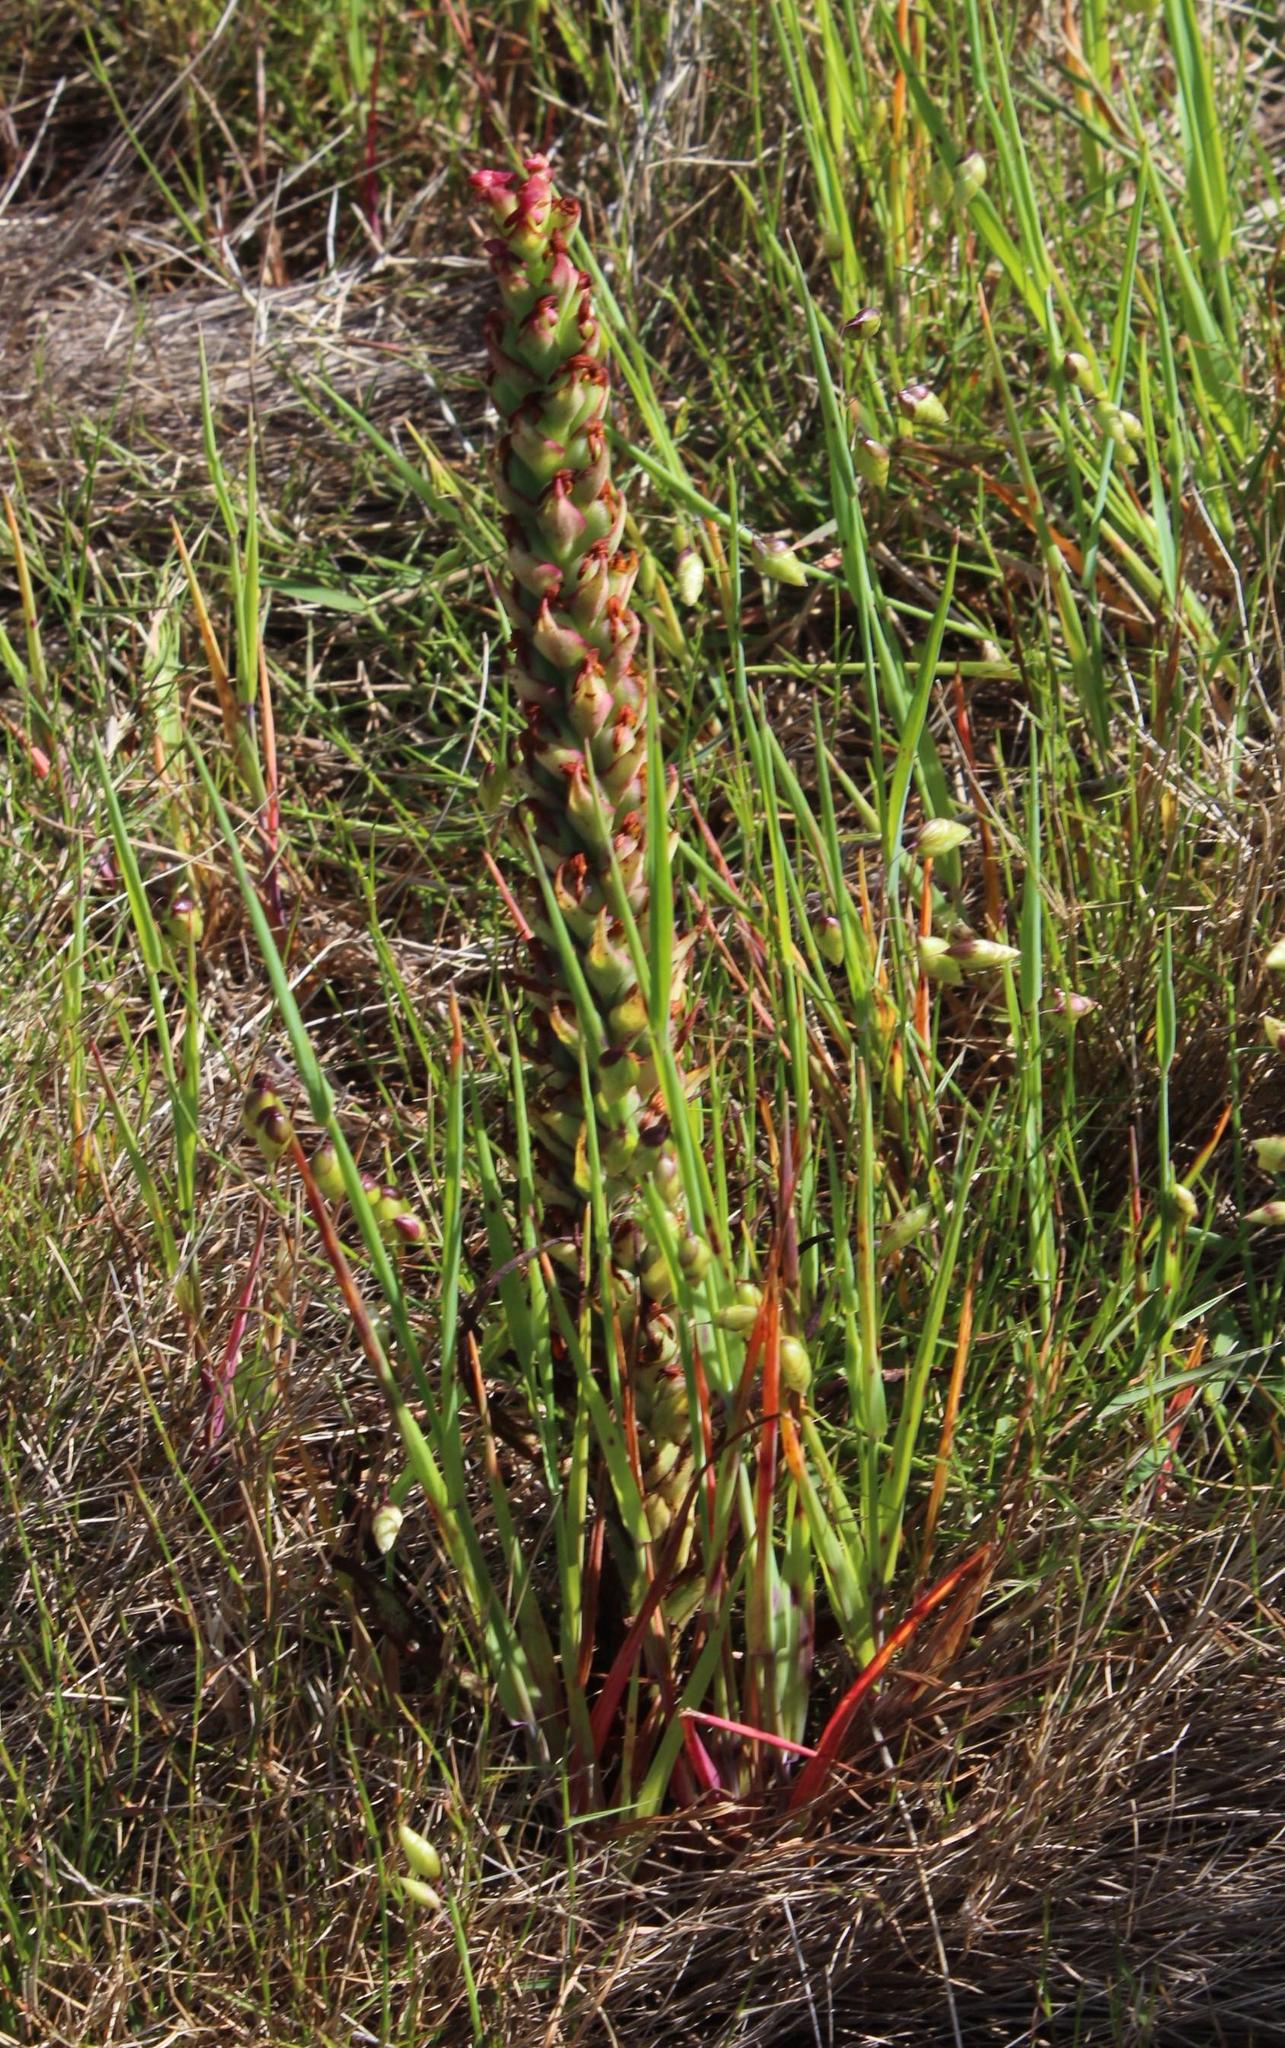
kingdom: Plantae
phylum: Tracheophyta
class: Liliopsida
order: Asparagales
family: Orchidaceae
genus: Disa
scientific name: Disa bracteata
